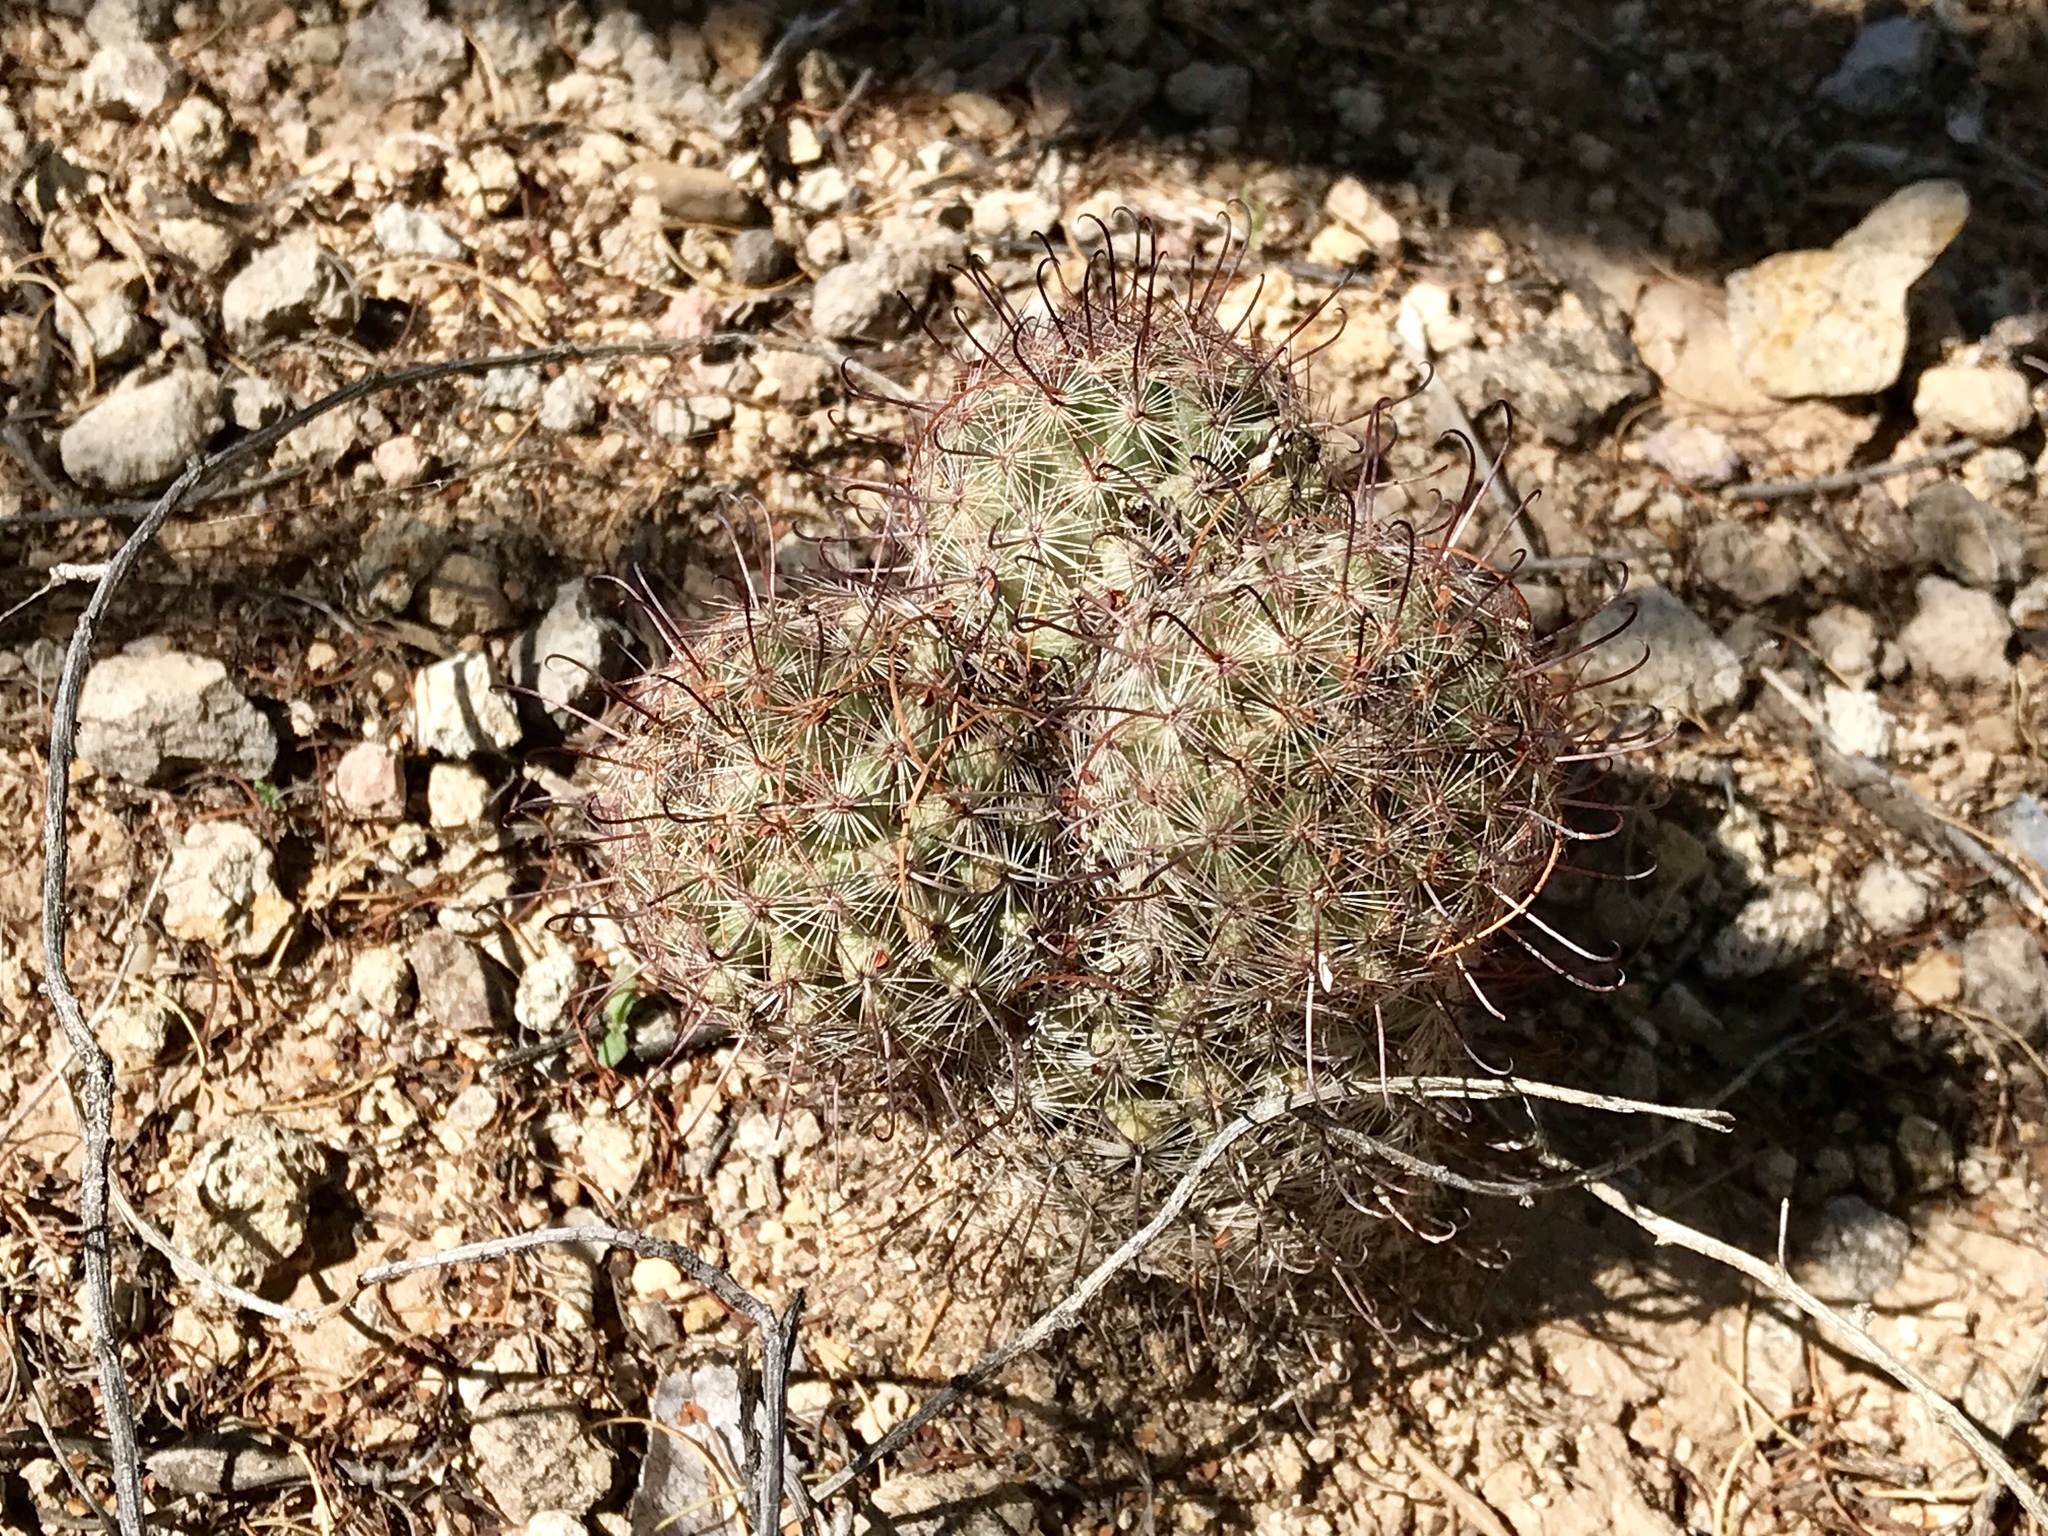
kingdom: Plantae
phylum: Tracheophyta
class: Magnoliopsida
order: Caryophyllales
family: Cactaceae
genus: Cochemiea
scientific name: Cochemiea grahamii
